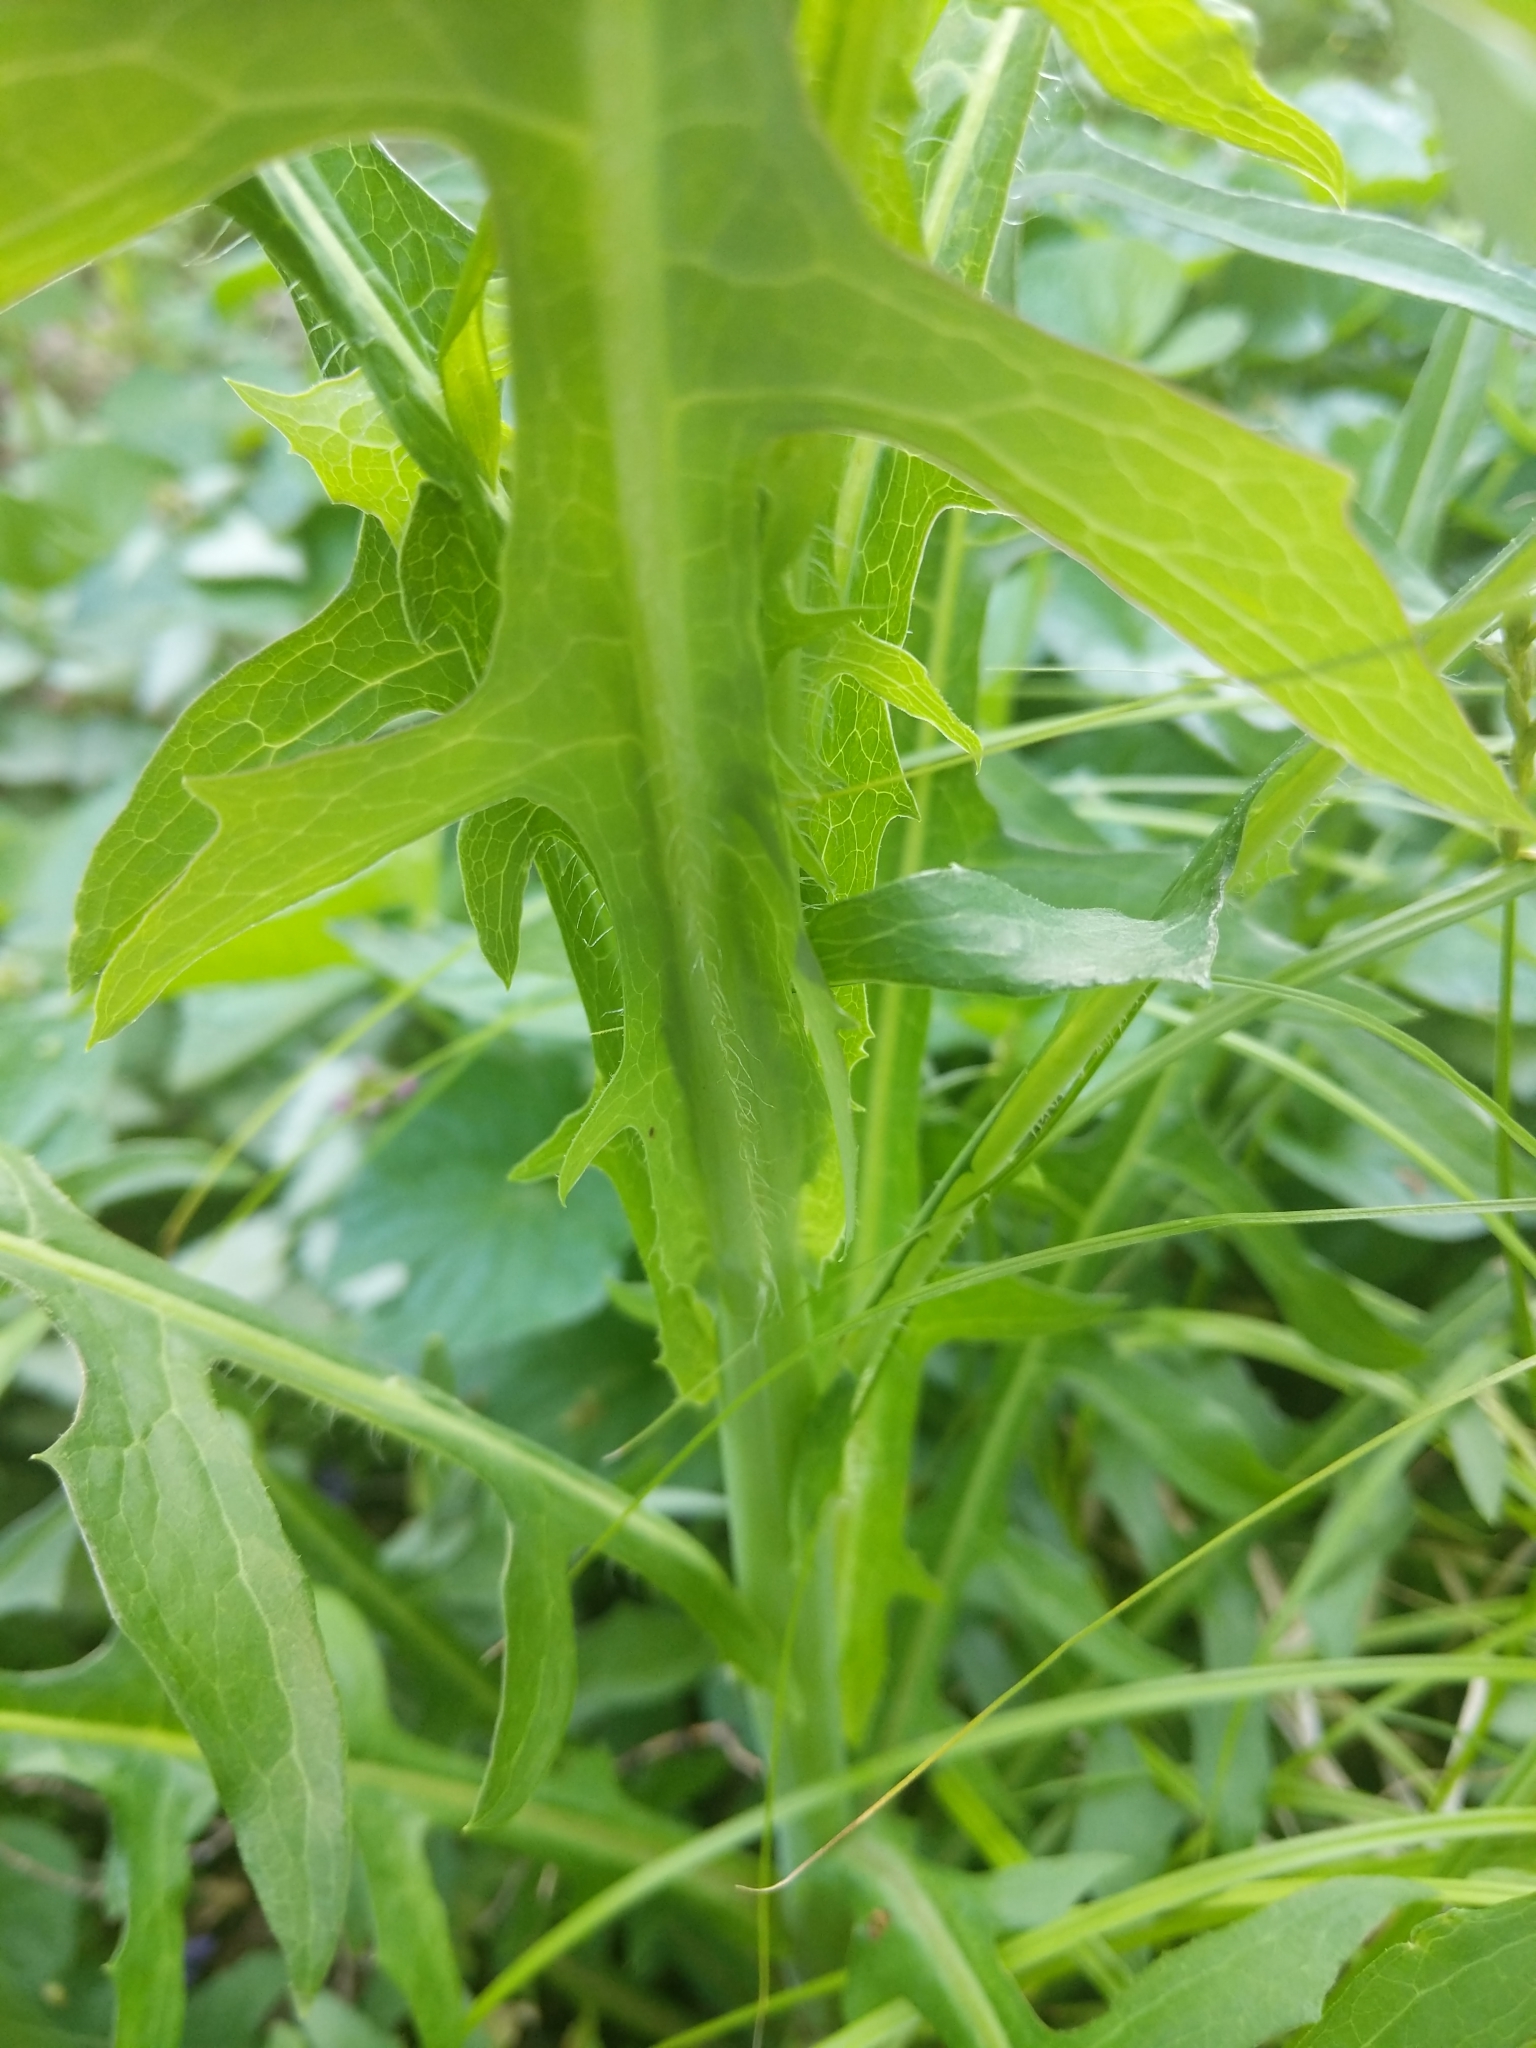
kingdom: Plantae
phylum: Tracheophyta
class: Magnoliopsida
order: Asterales
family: Asteraceae
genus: Lactuca
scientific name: Lactuca canadensis
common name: Canada lettuce
